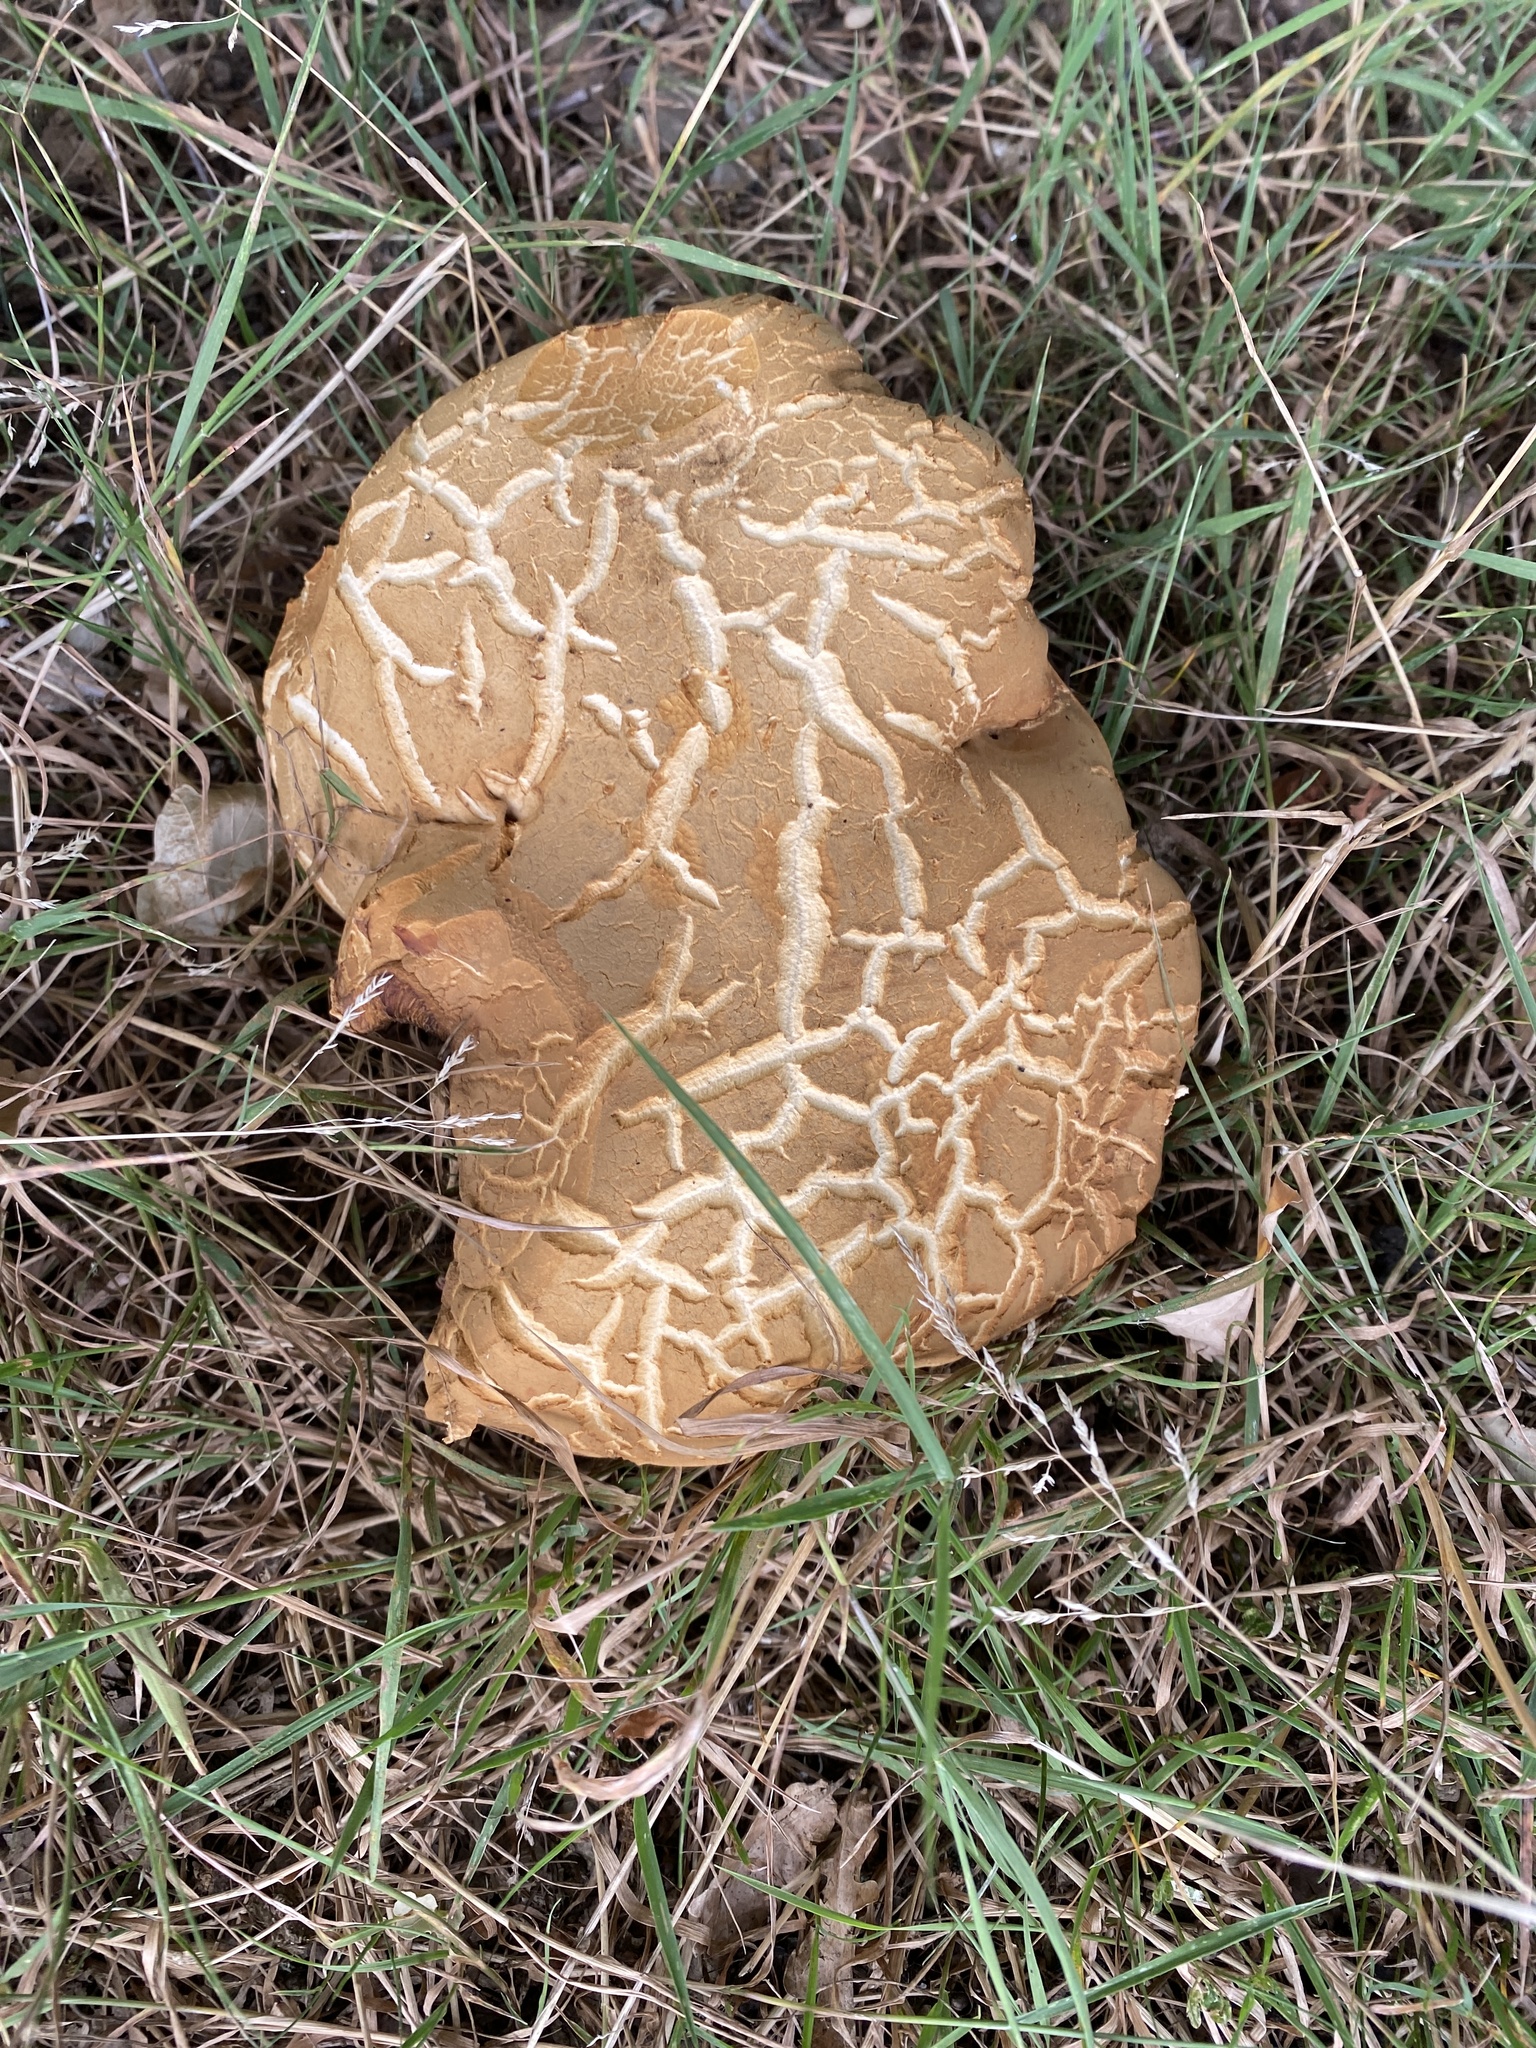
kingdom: Fungi
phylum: Basidiomycota
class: Agaricomycetes
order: Boletales
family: Boletaceae
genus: Xerocomellus
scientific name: Xerocomellus chrysenteron
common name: Red-cracking bolete
